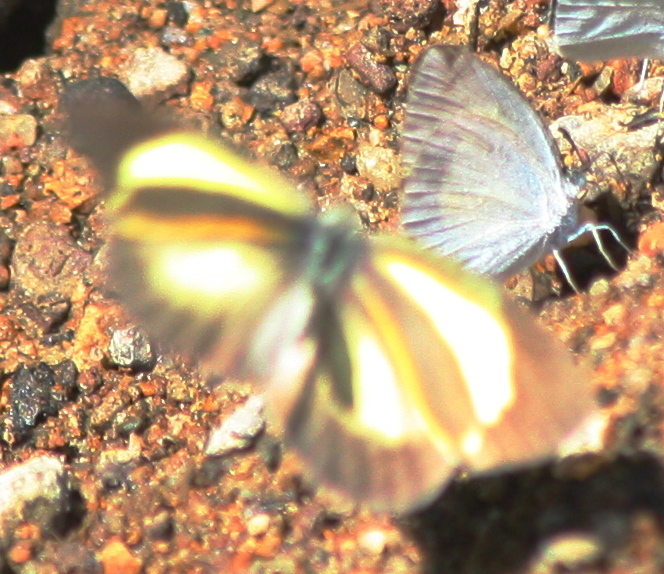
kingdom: Animalia
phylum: Arthropoda
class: Insecta
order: Lepidoptera
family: Pieridae
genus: Eurema
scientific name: Eurema daira
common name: Barred sulphur
